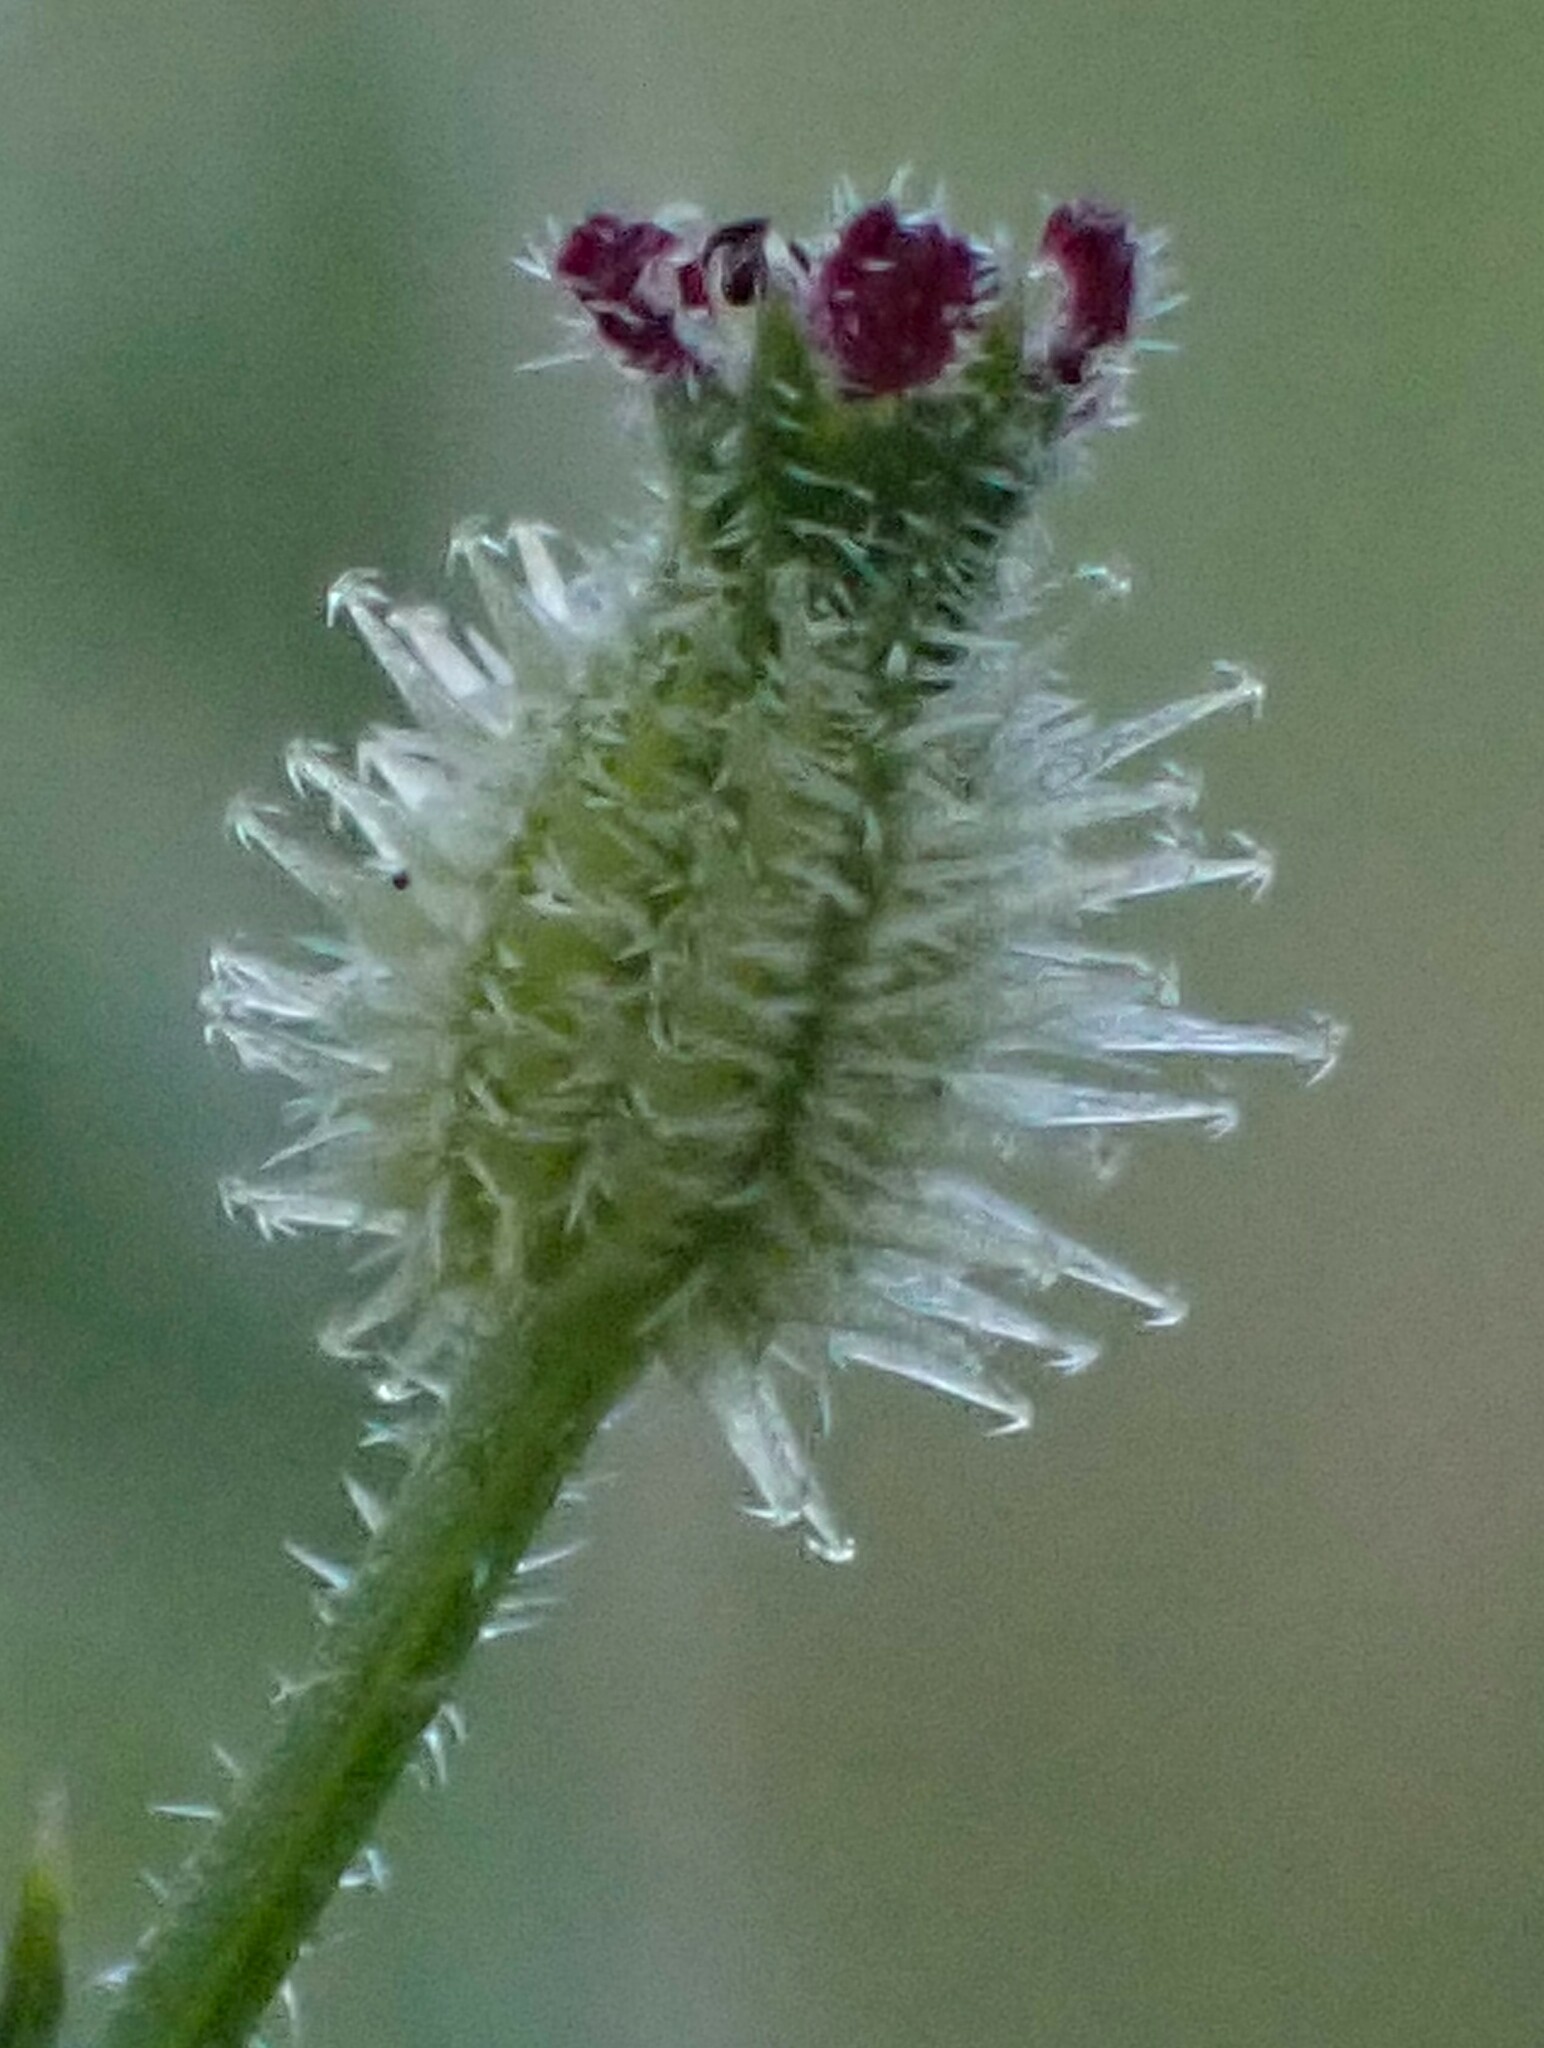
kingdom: Plantae
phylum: Tracheophyta
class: Magnoliopsida
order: Apiales
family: Apiaceae
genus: Daucus
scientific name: Daucus glochidiatus
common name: Australian carrot
